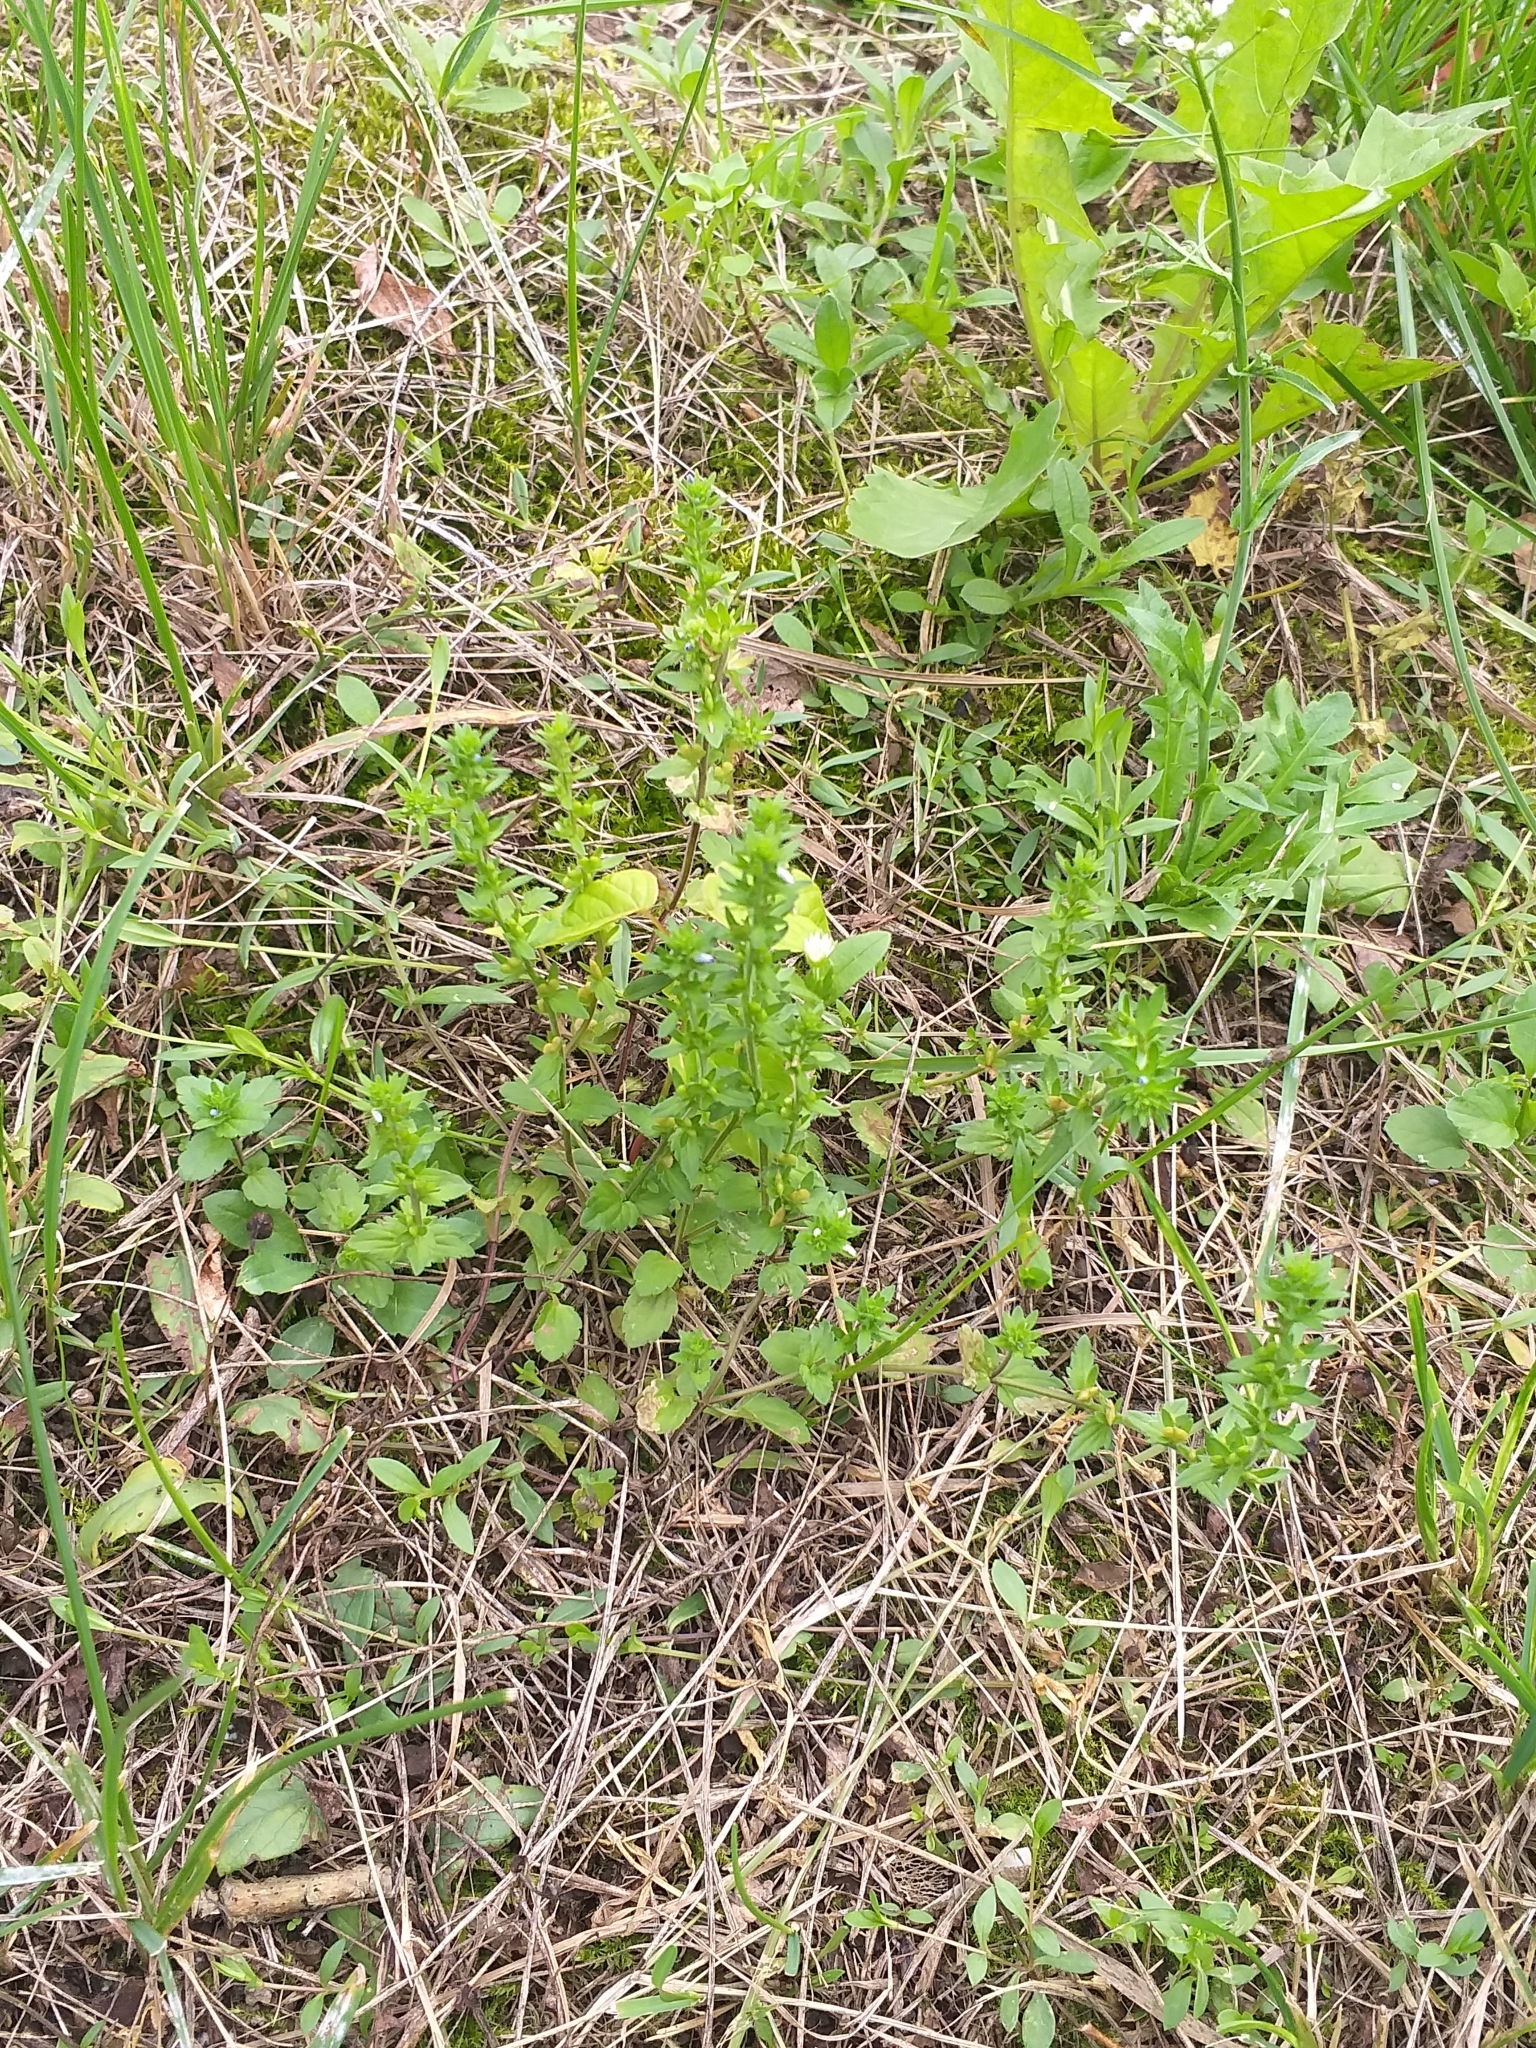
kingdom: Plantae
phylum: Tracheophyta
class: Magnoliopsida
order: Lamiales
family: Plantaginaceae
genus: Veronica
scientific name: Veronica arvensis
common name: Corn speedwell
